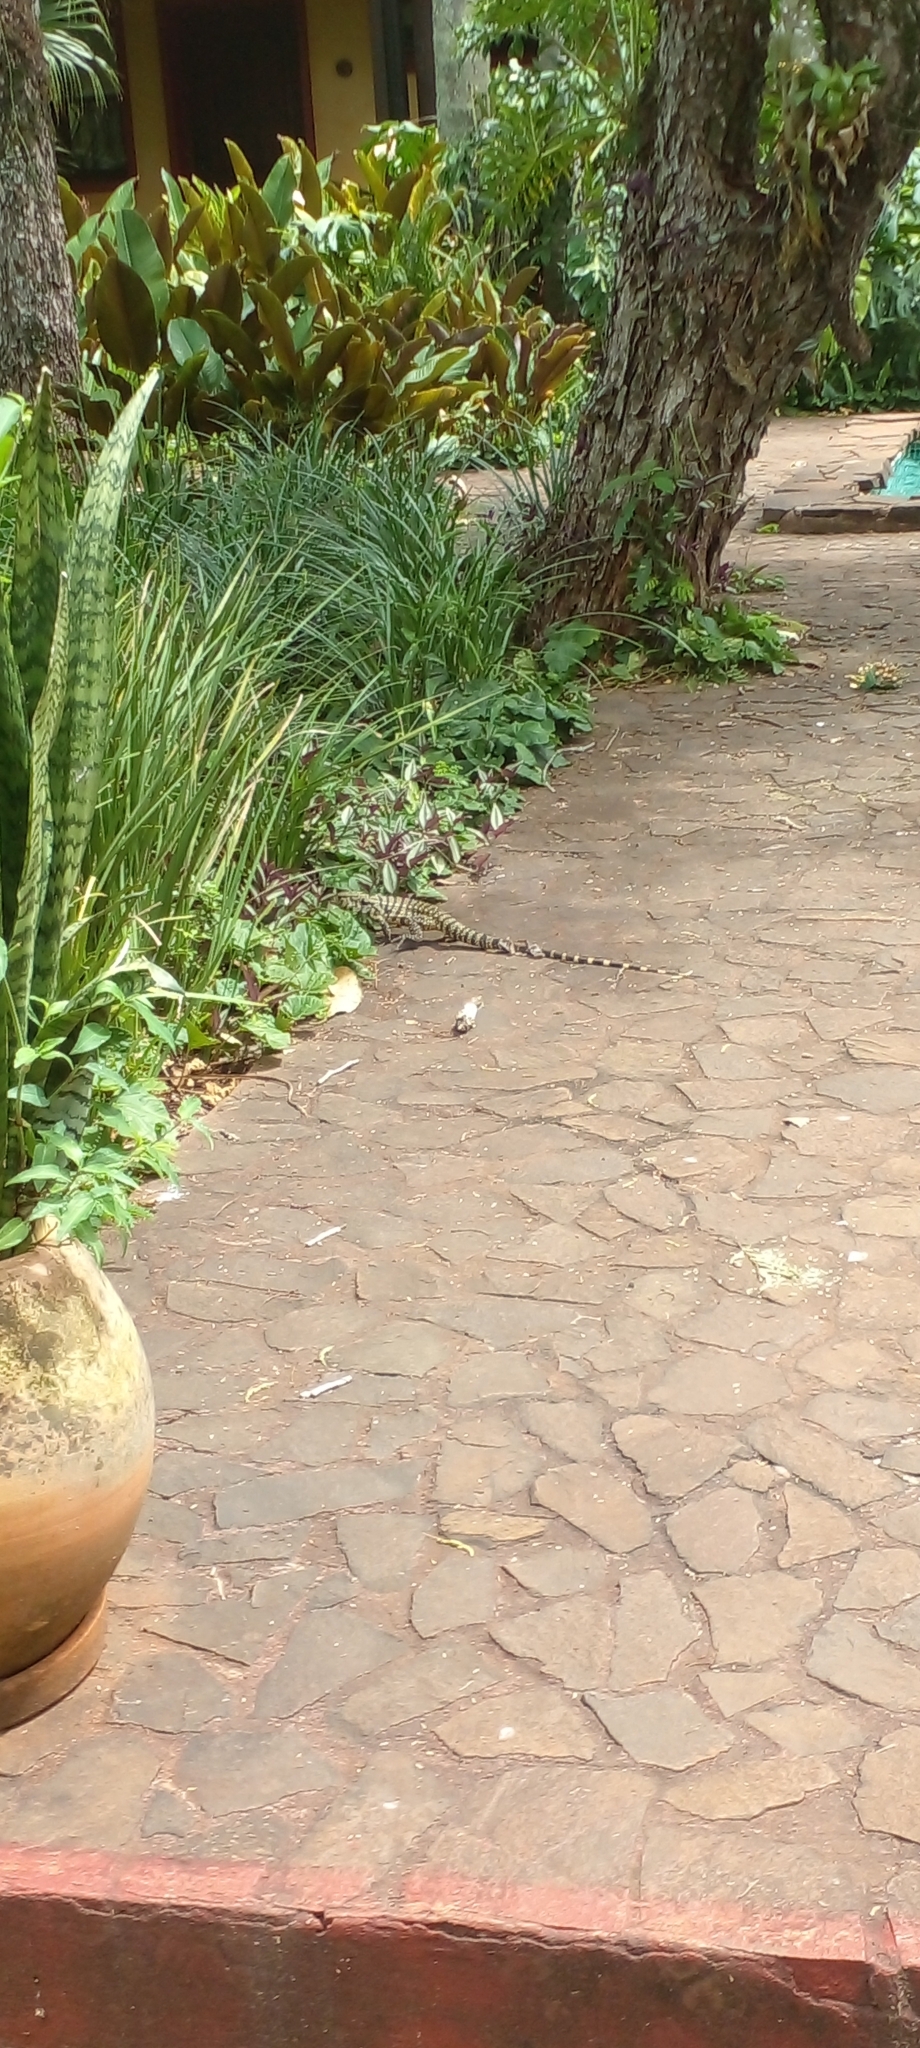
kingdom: Animalia
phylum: Chordata
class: Squamata
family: Teiidae
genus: Salvator
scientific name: Salvator merianae
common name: Argentine black and white tegu
